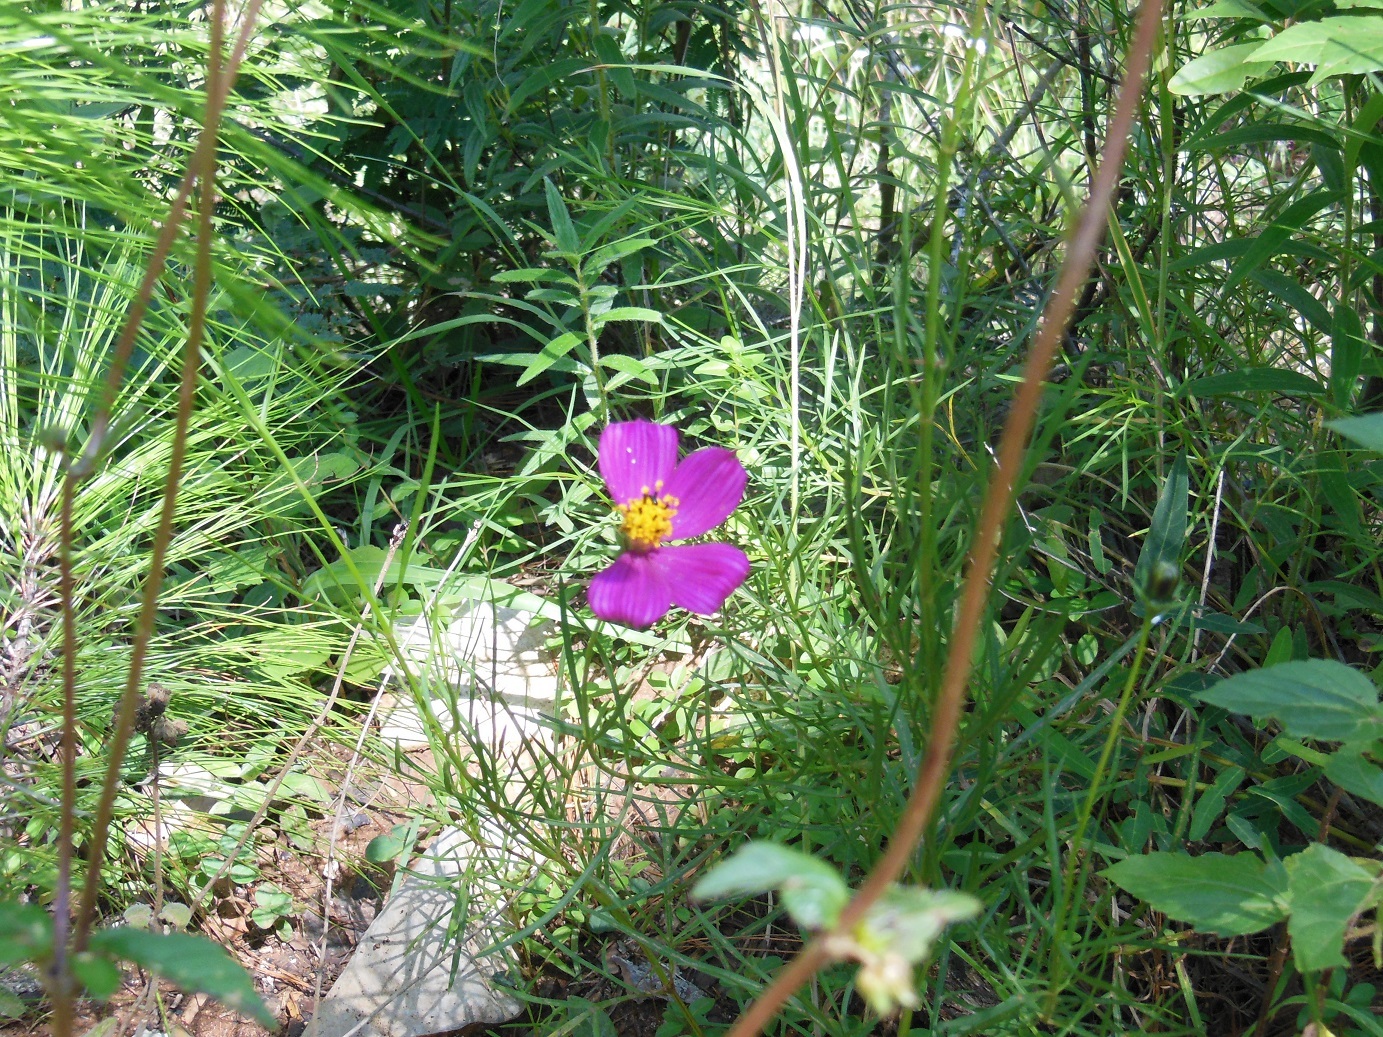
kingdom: Plantae
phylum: Tracheophyta
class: Magnoliopsida
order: Asterales
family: Asteraceae
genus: Cosmos
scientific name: Cosmos crithmifolius
